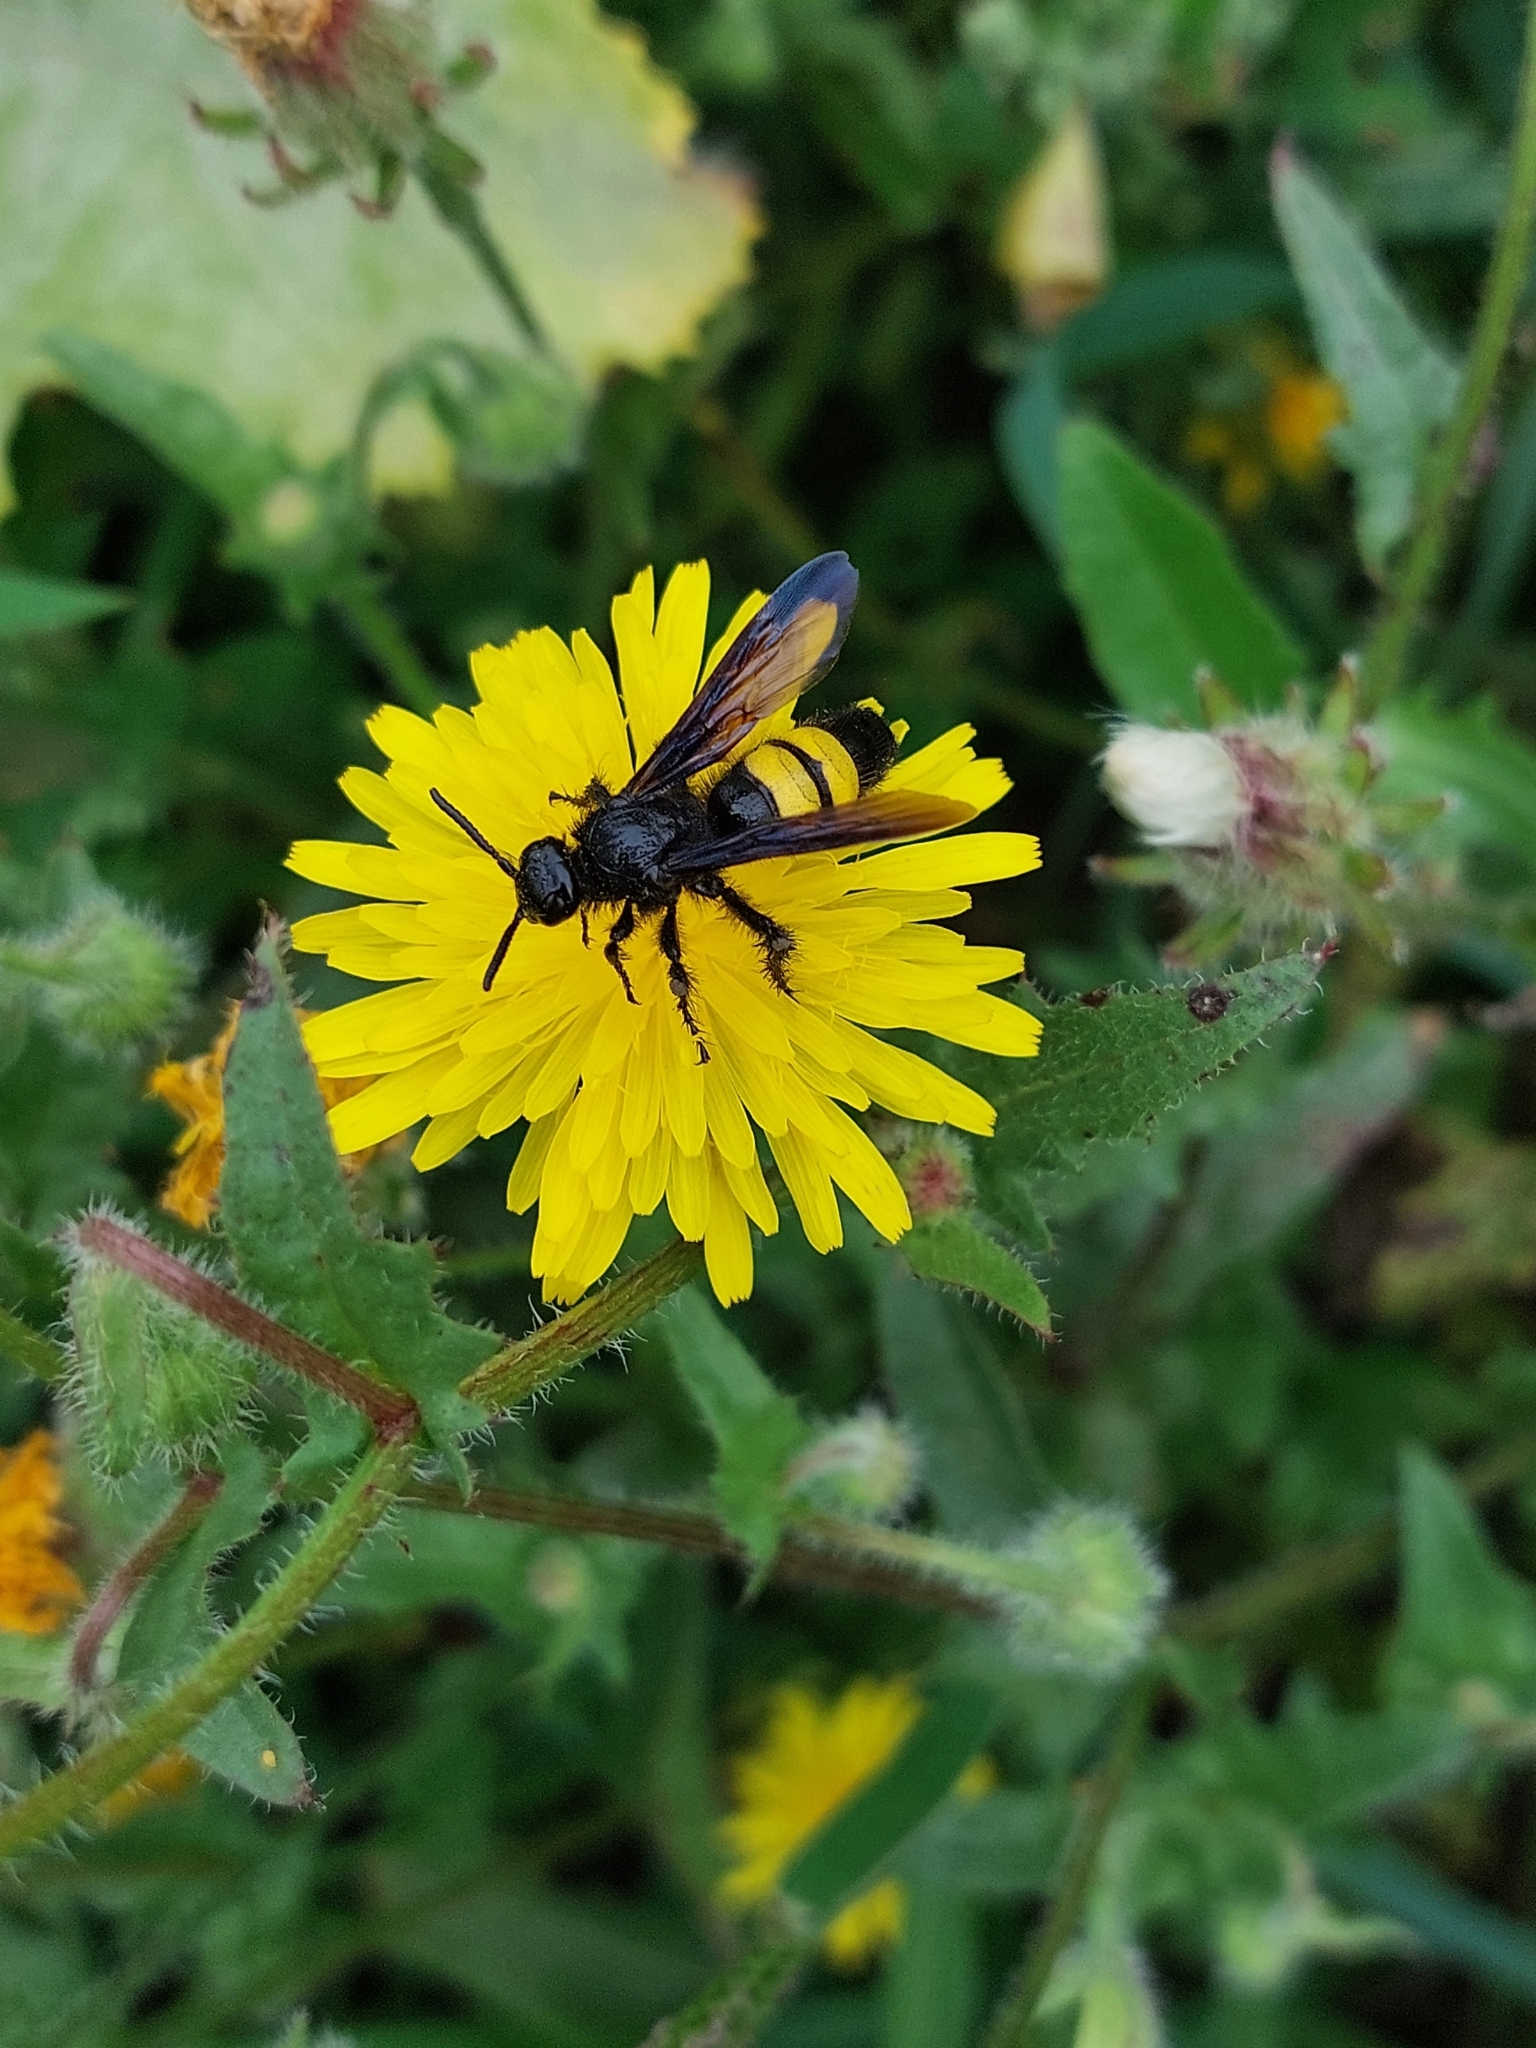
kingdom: Animalia
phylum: Arthropoda
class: Insecta
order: Hymenoptera
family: Scoliidae
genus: Scolia
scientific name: Scolia hirta
